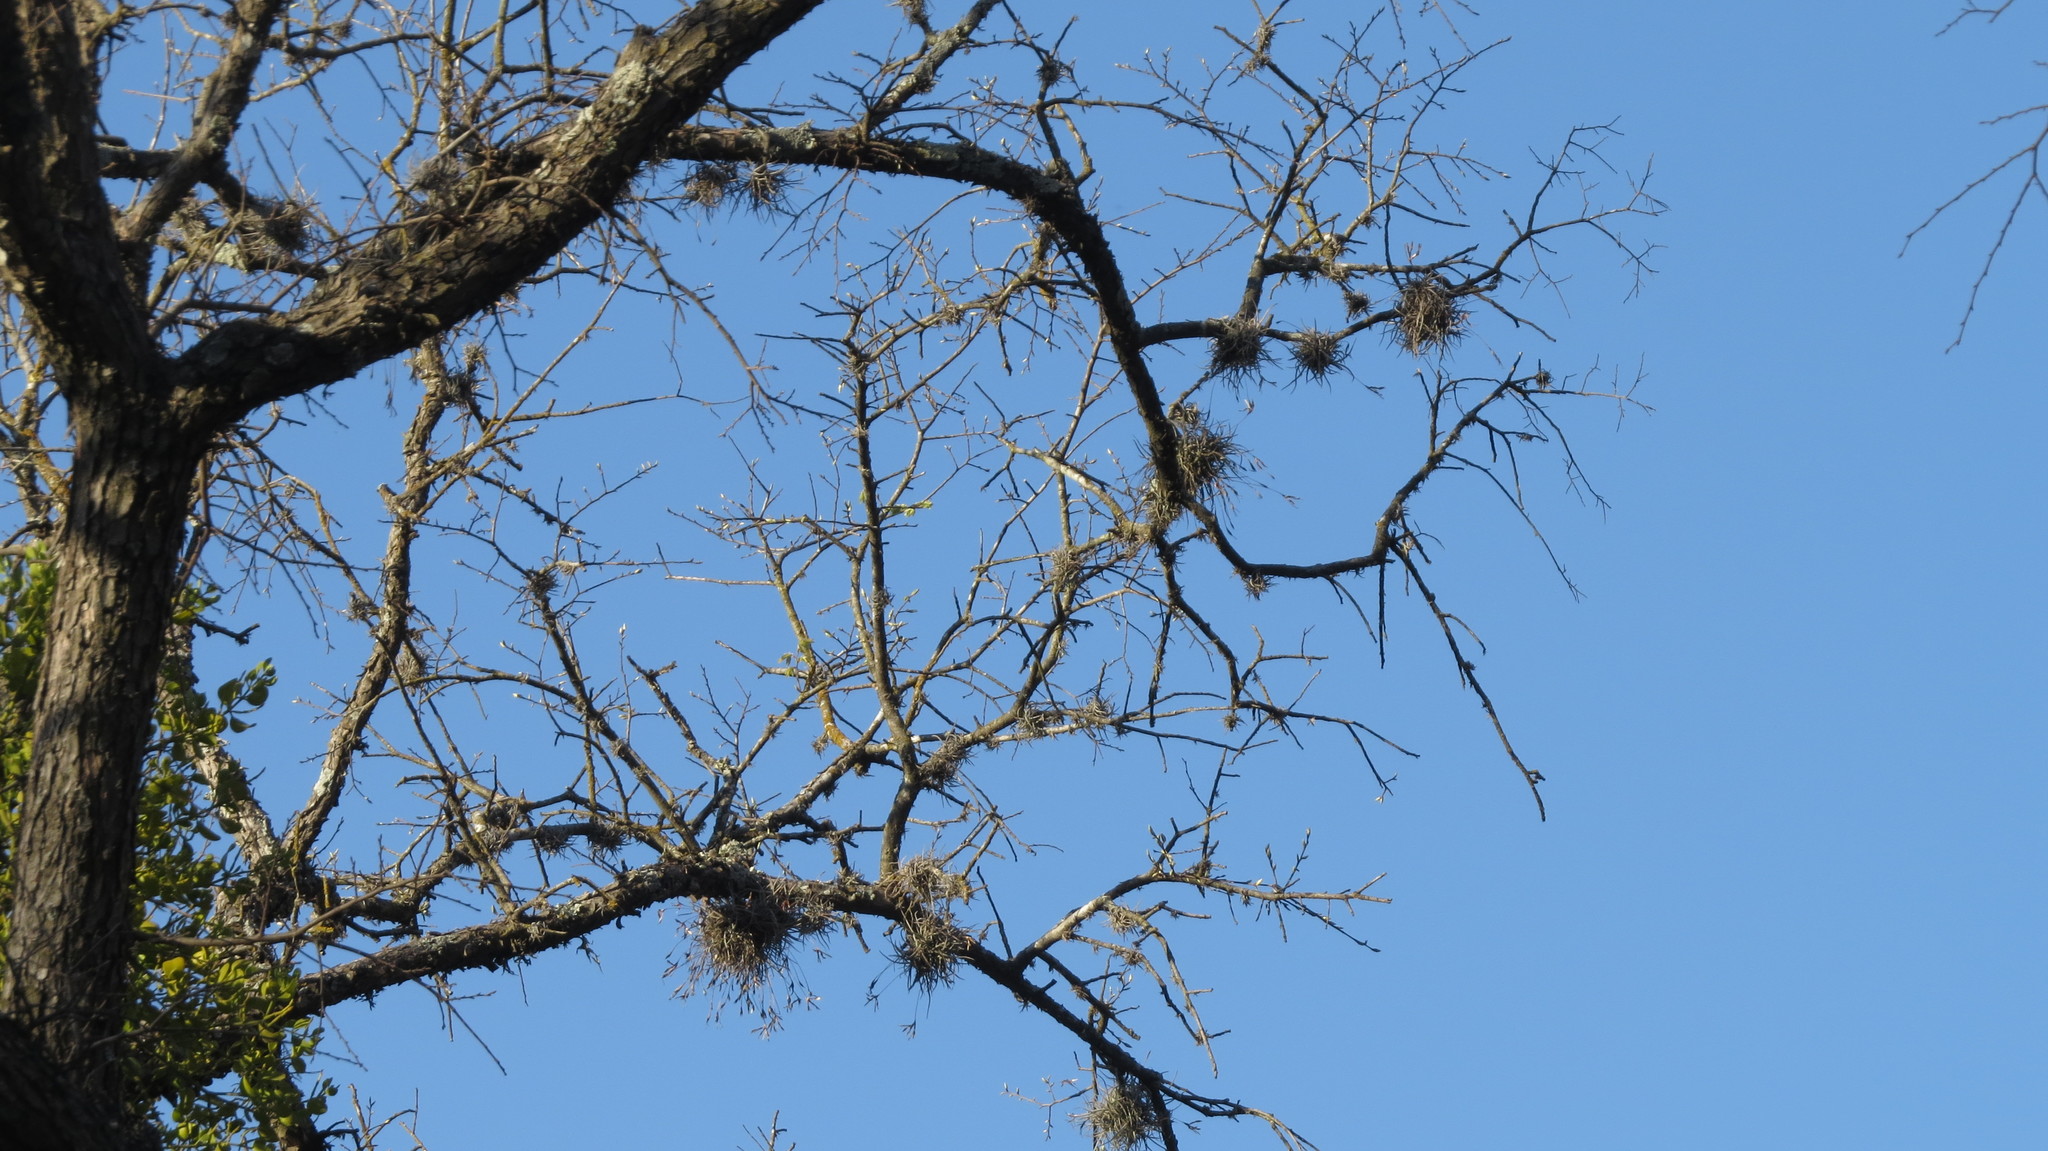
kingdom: Plantae
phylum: Tracheophyta
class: Liliopsida
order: Poales
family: Bromeliaceae
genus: Tillandsia
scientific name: Tillandsia recurvata
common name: Small ballmoss
